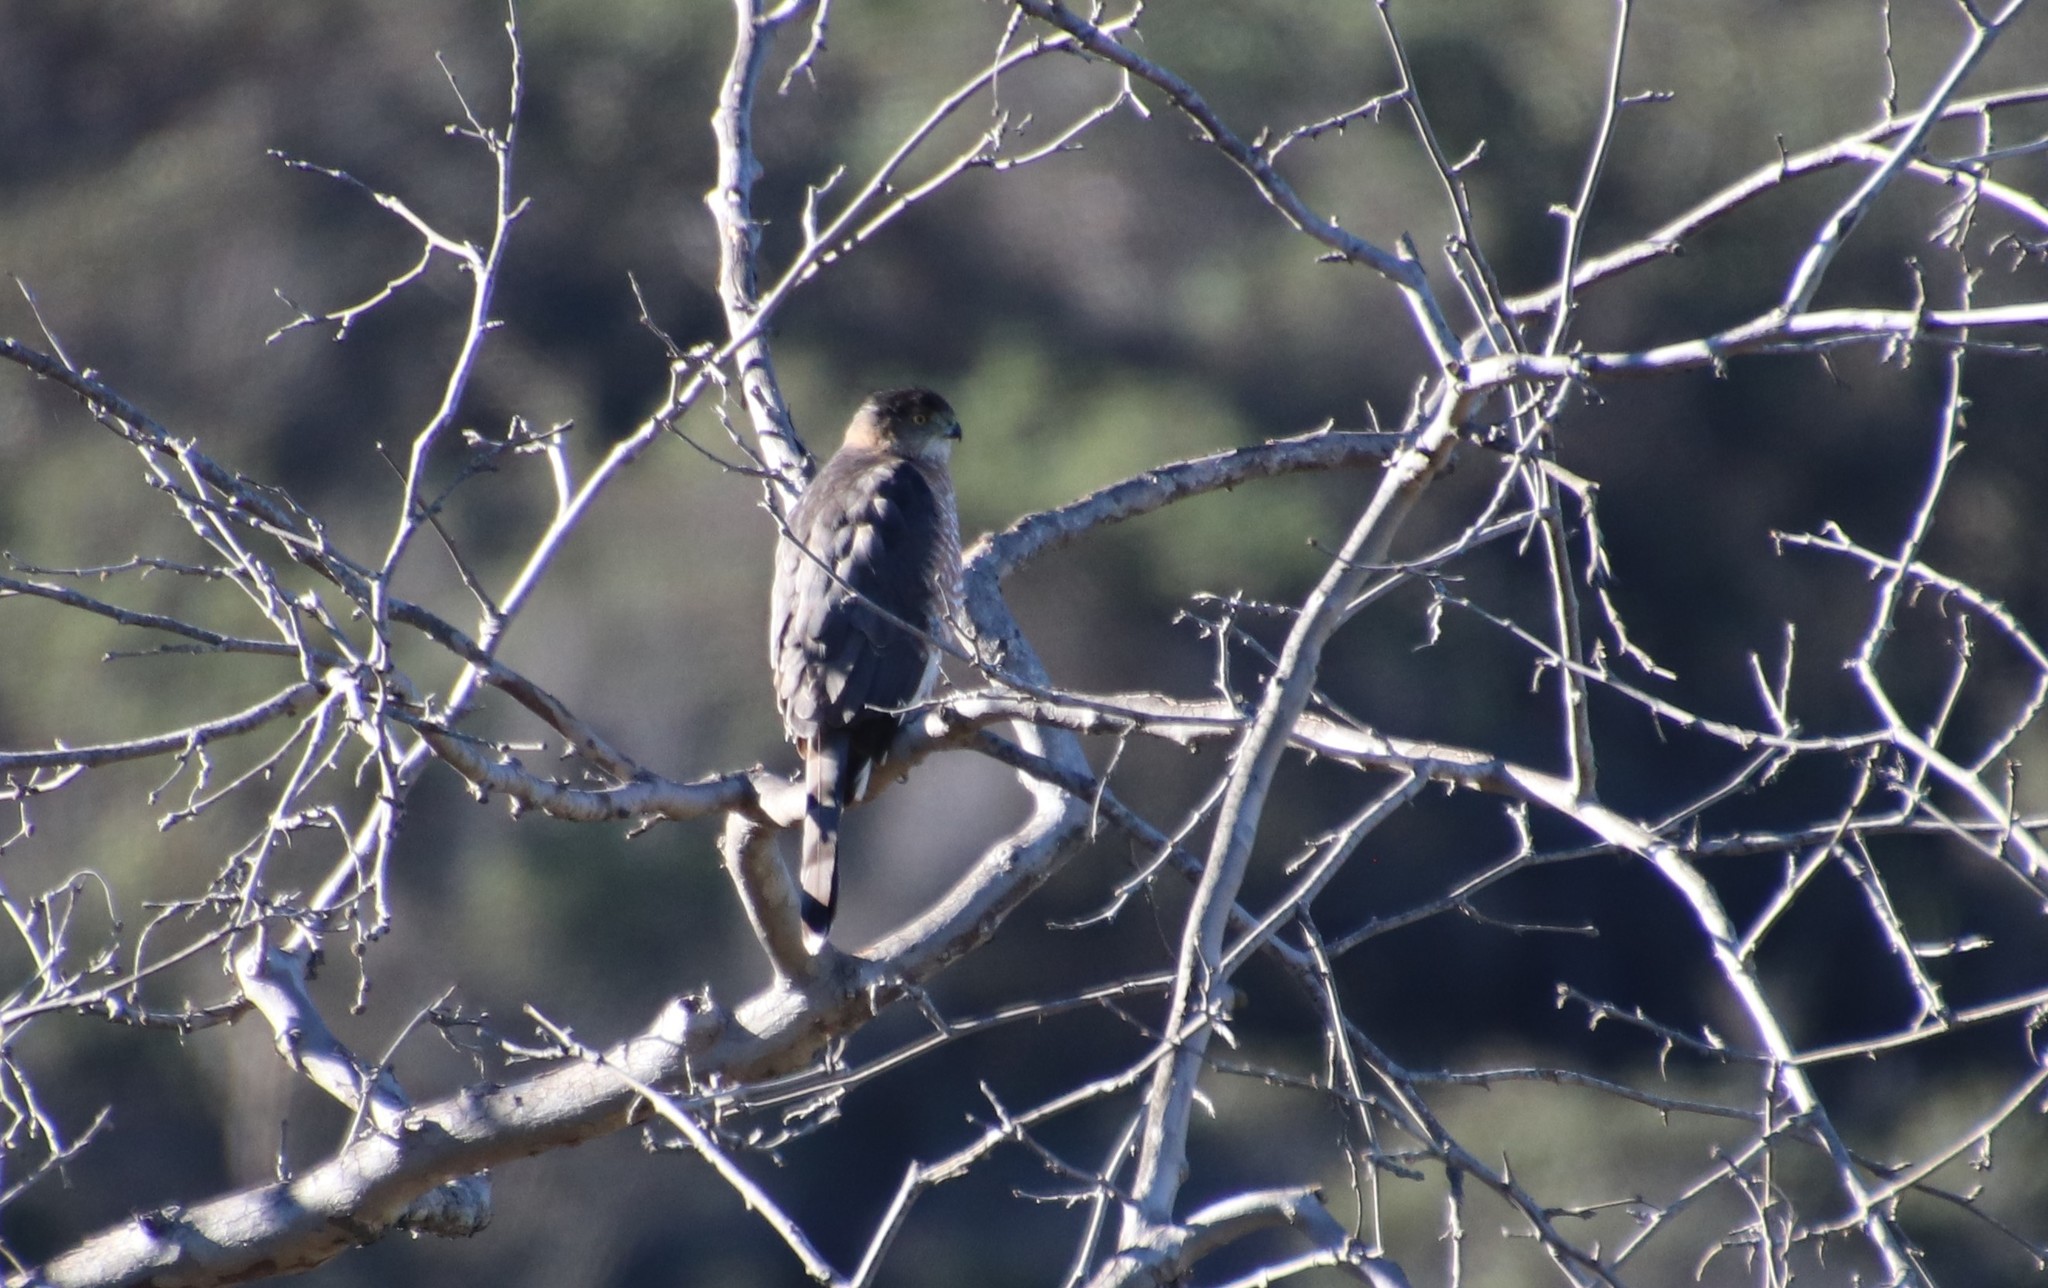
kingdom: Animalia
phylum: Chordata
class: Aves
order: Accipitriformes
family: Accipitridae
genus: Accipiter
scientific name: Accipiter cooperii
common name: Cooper's hawk
